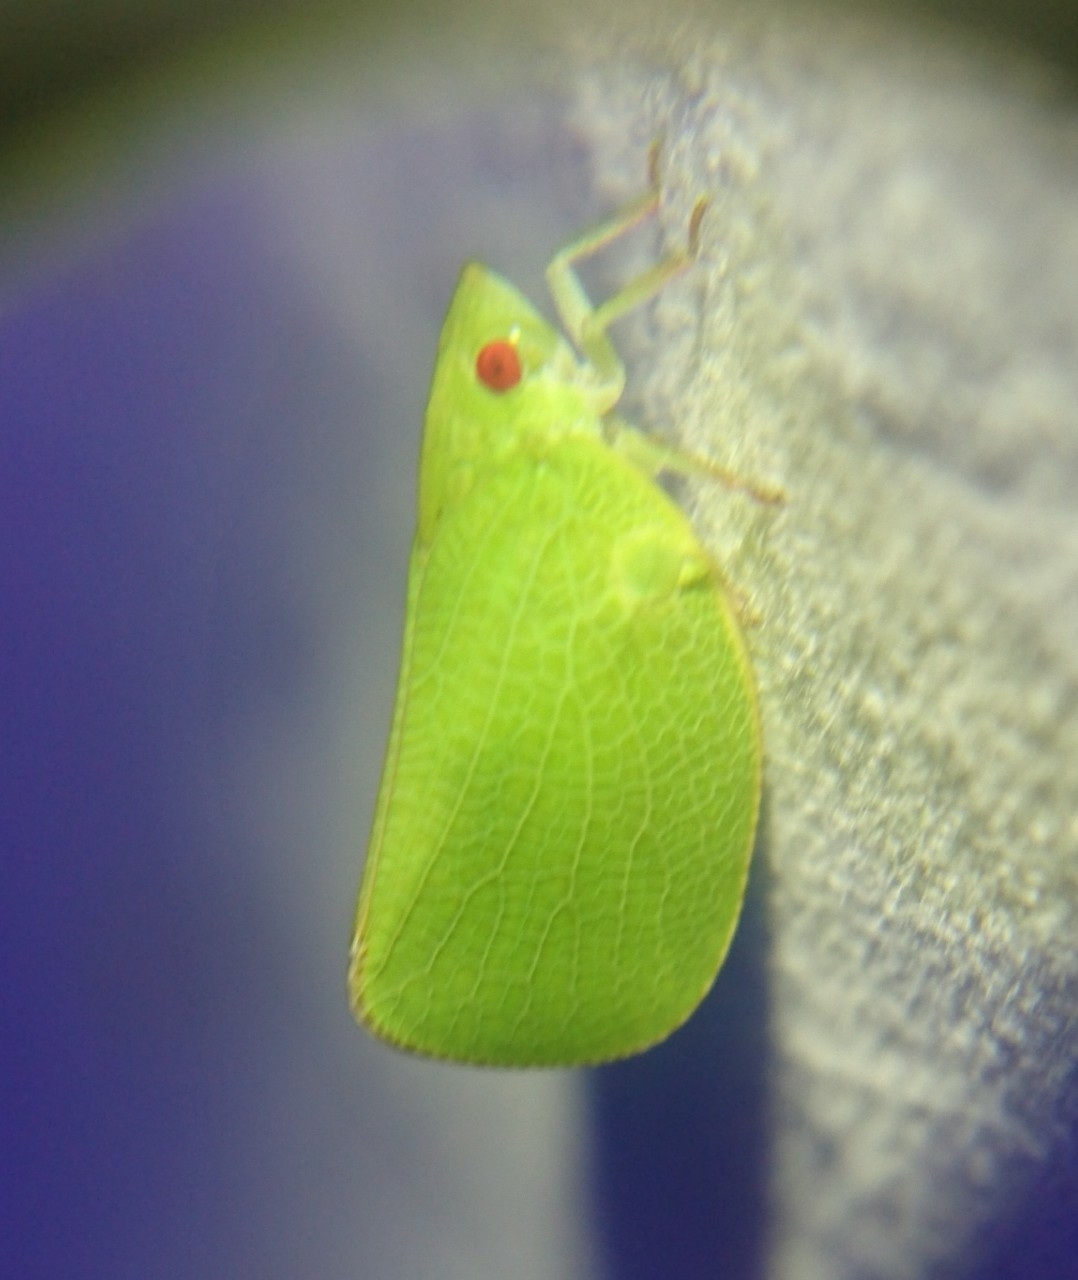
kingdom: Animalia
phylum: Arthropoda
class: Insecta
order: Hemiptera
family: Acanaloniidae
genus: Acanalonia
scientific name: Acanalonia conica
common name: Green cone-headed planthopper
